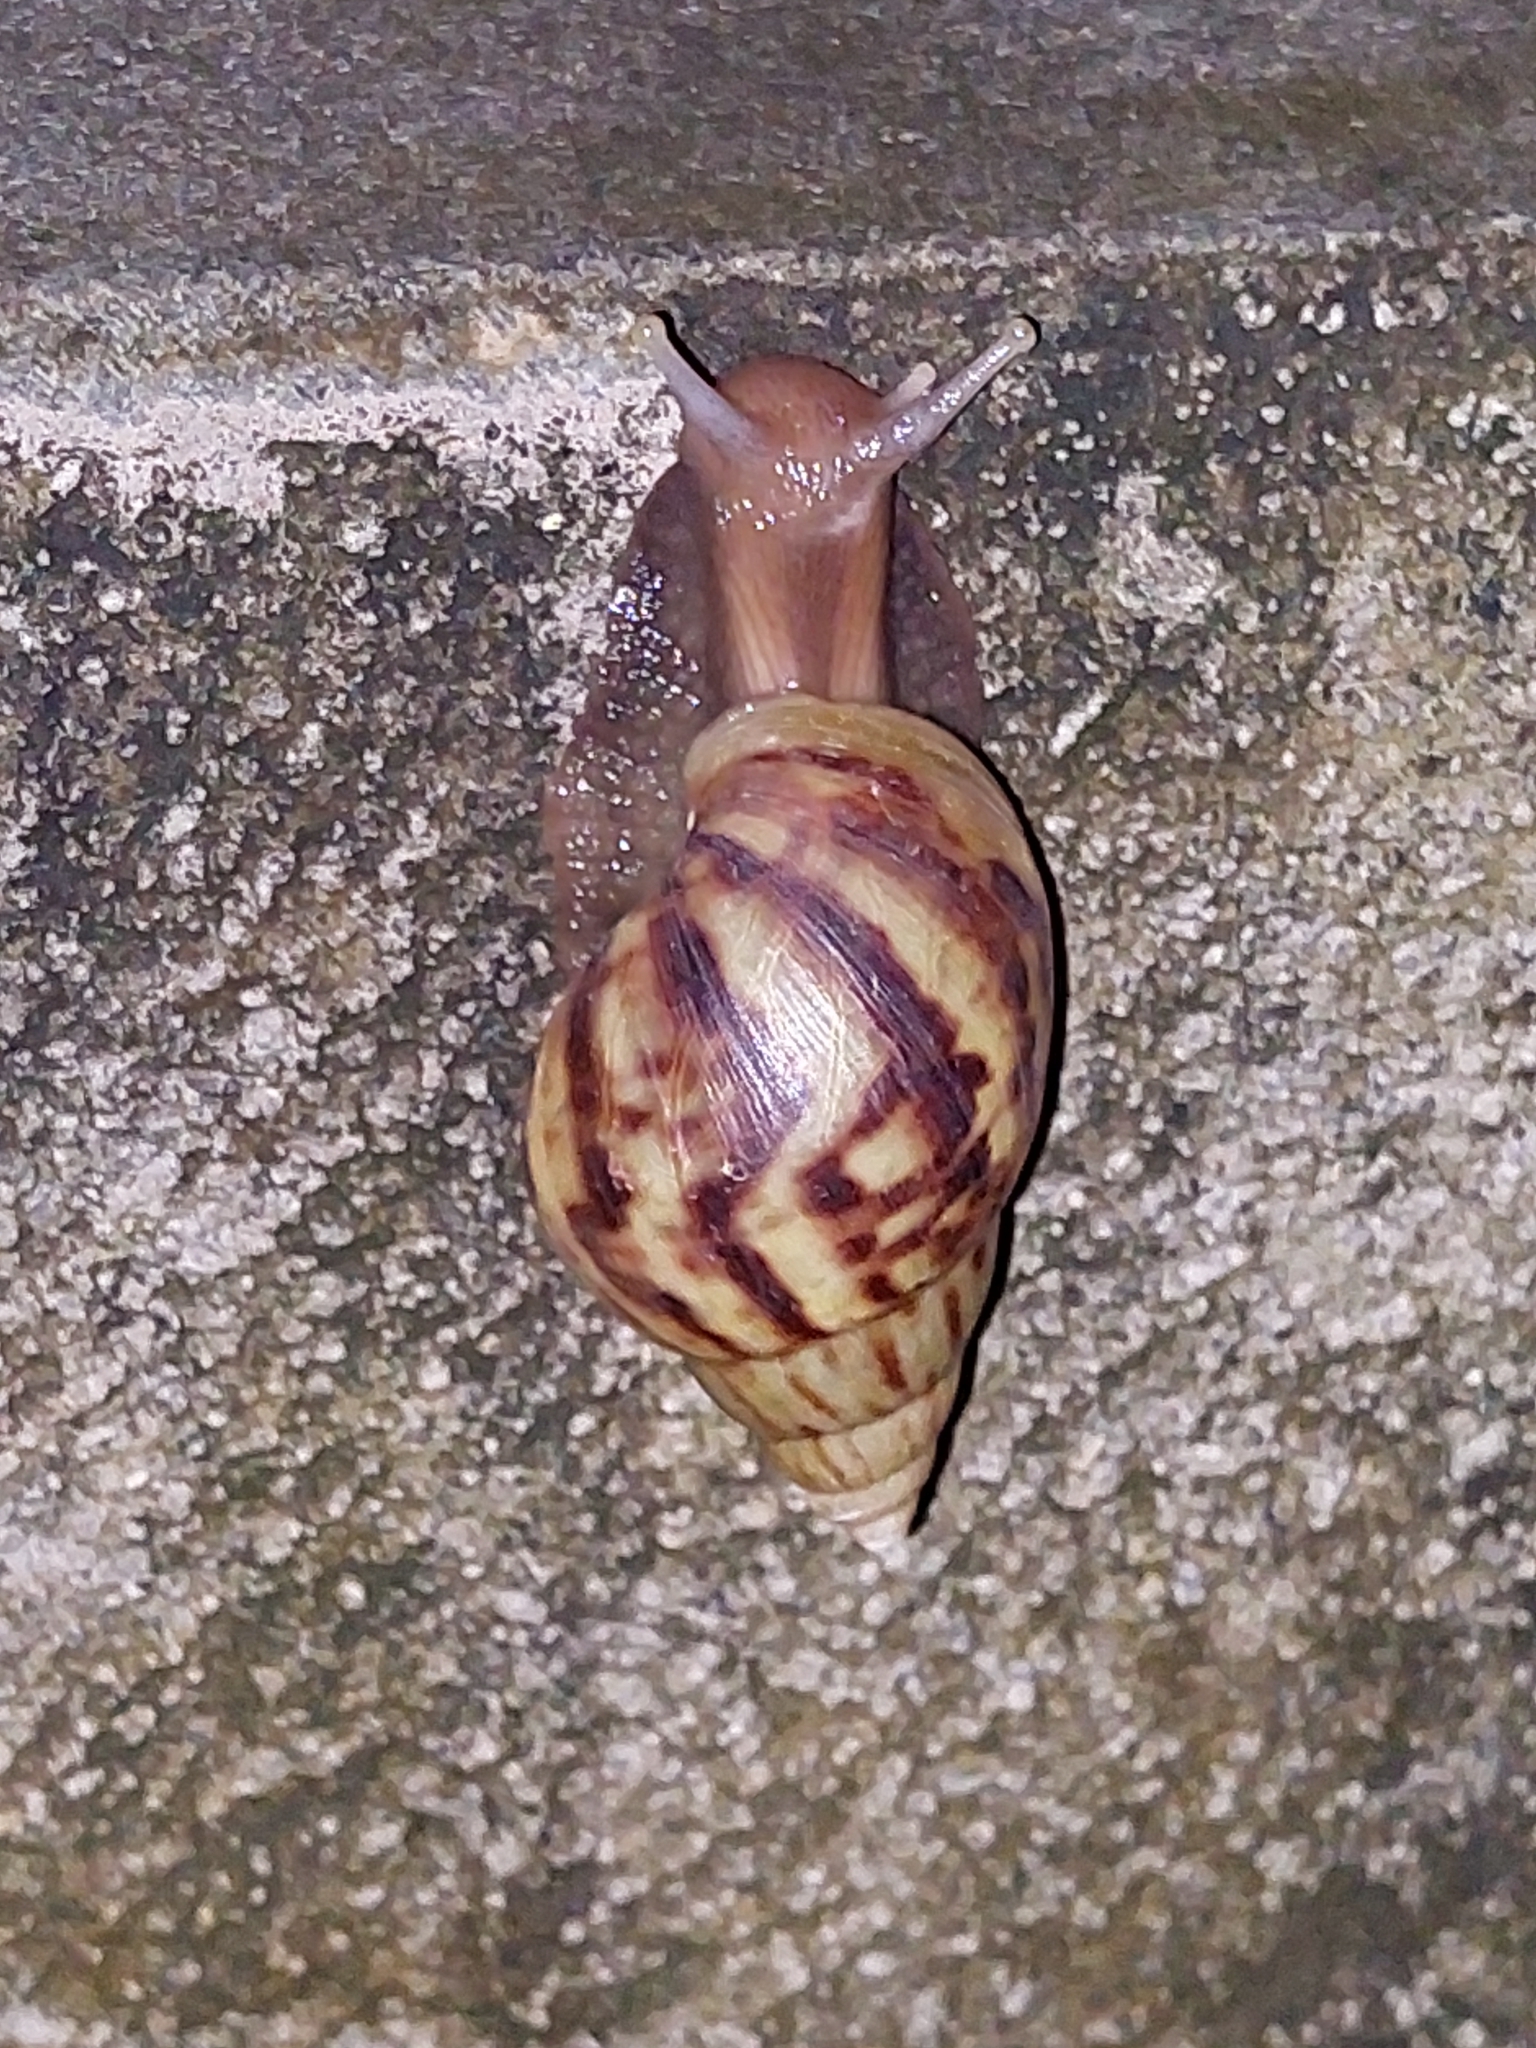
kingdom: Animalia
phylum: Mollusca
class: Gastropoda
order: Stylommatophora
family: Achatinidae
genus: Lissachatina
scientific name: Lissachatina fulica
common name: Giant african snail
